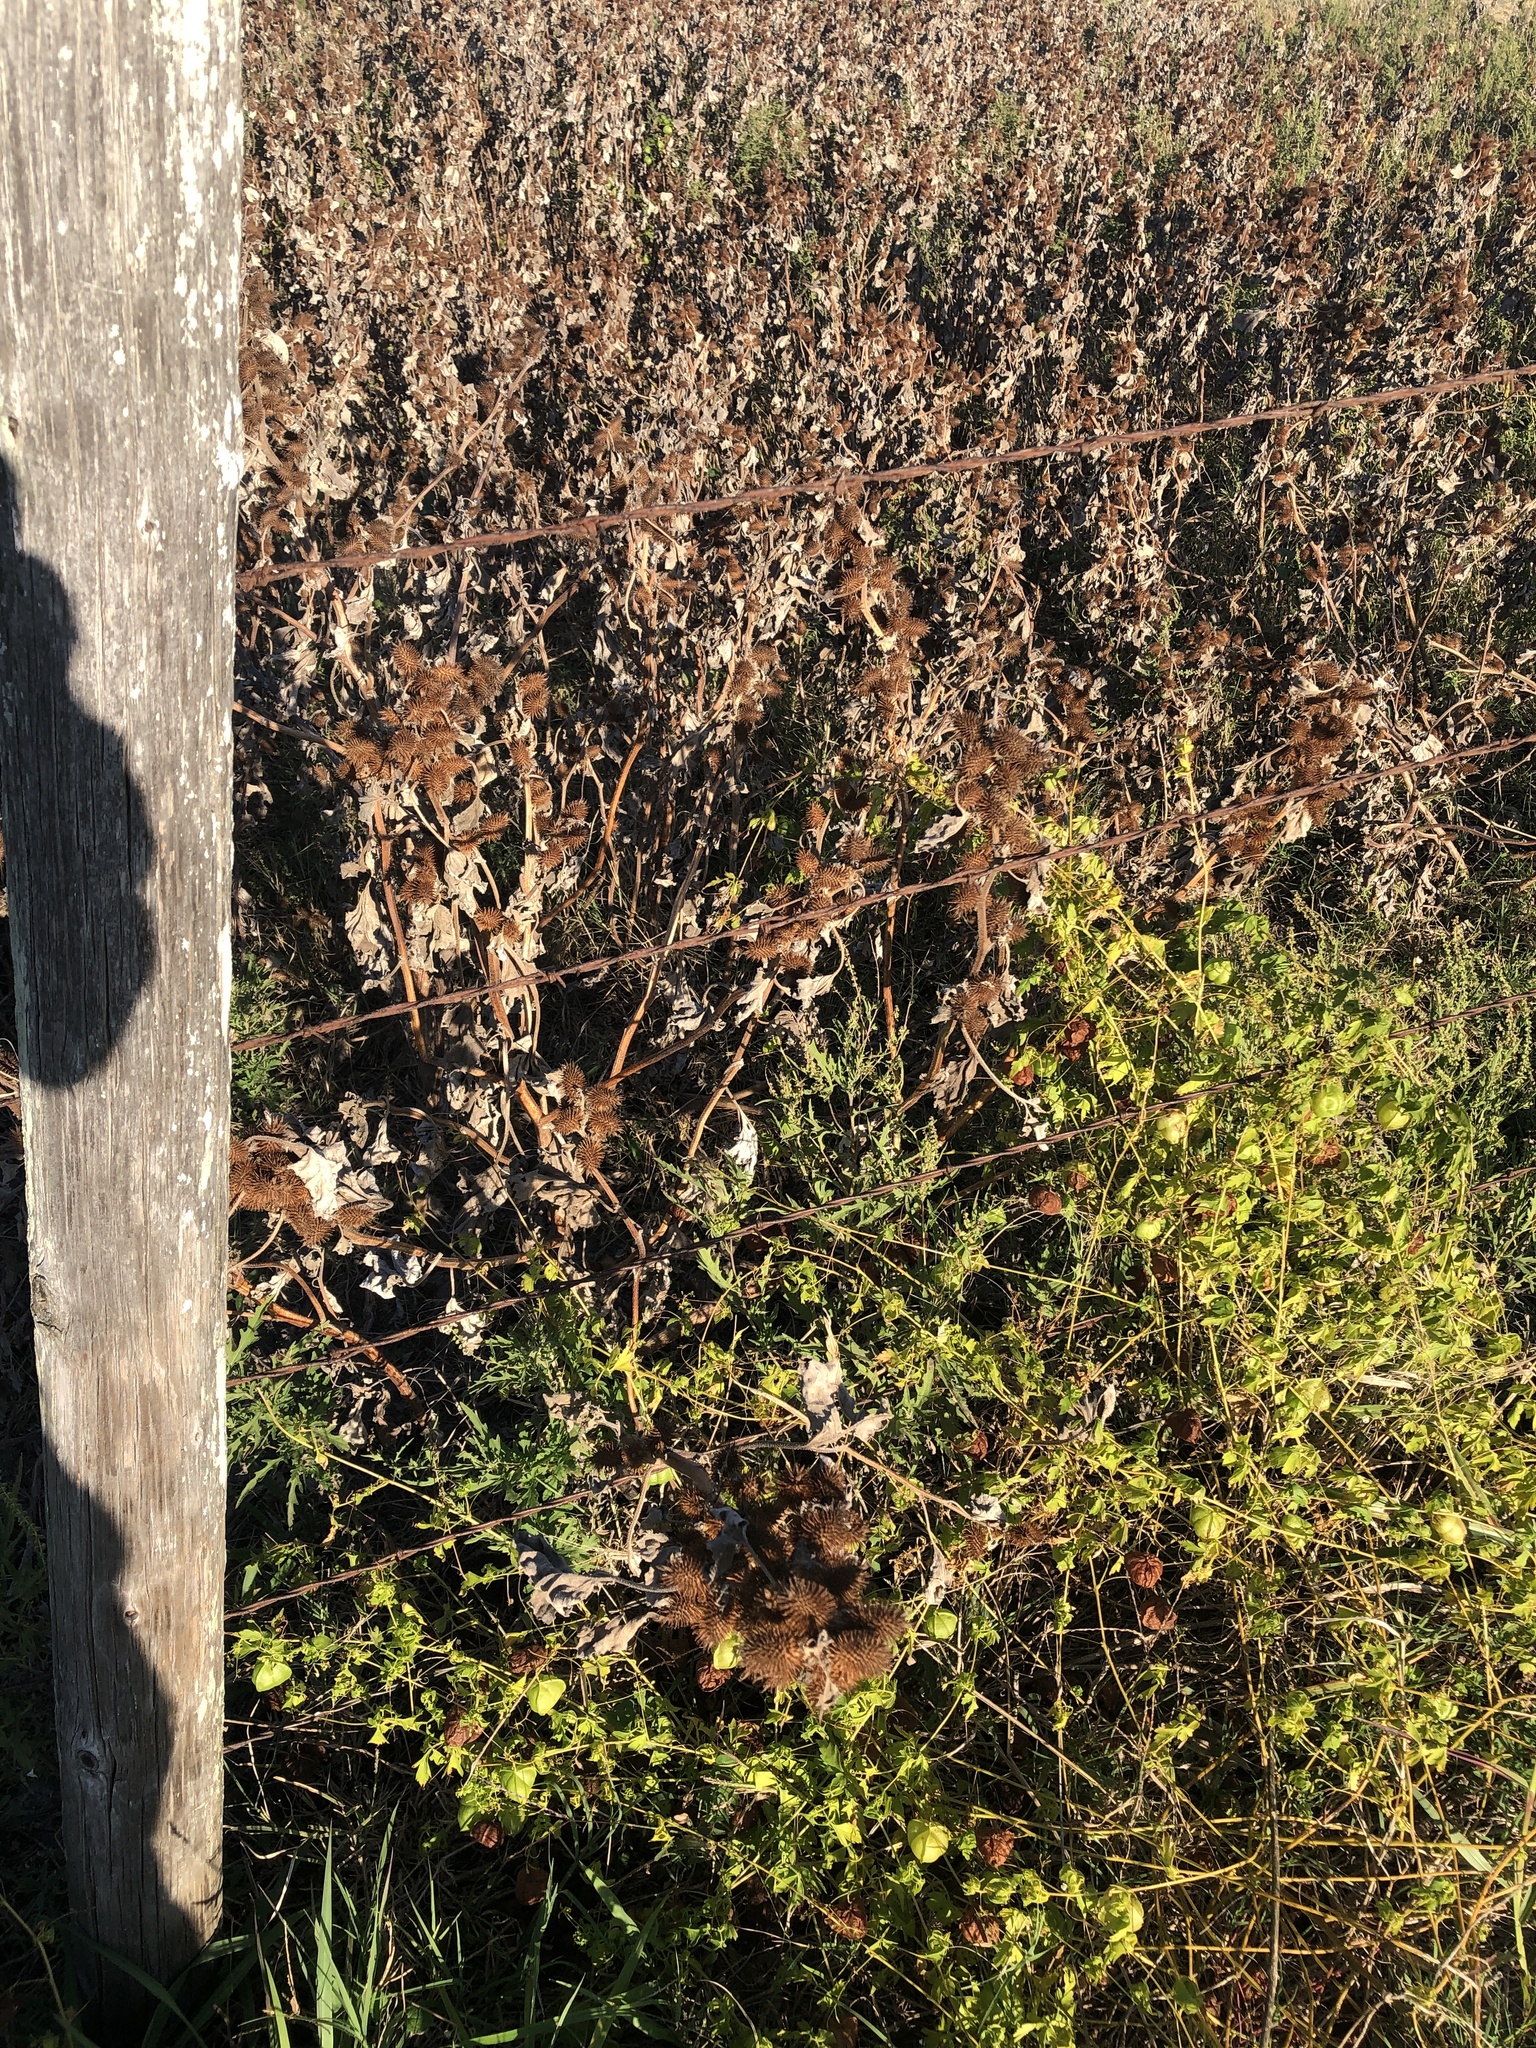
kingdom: Plantae
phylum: Tracheophyta
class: Magnoliopsida
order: Asterales
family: Asteraceae
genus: Xanthium
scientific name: Xanthium strumarium
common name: Rough cocklebur
